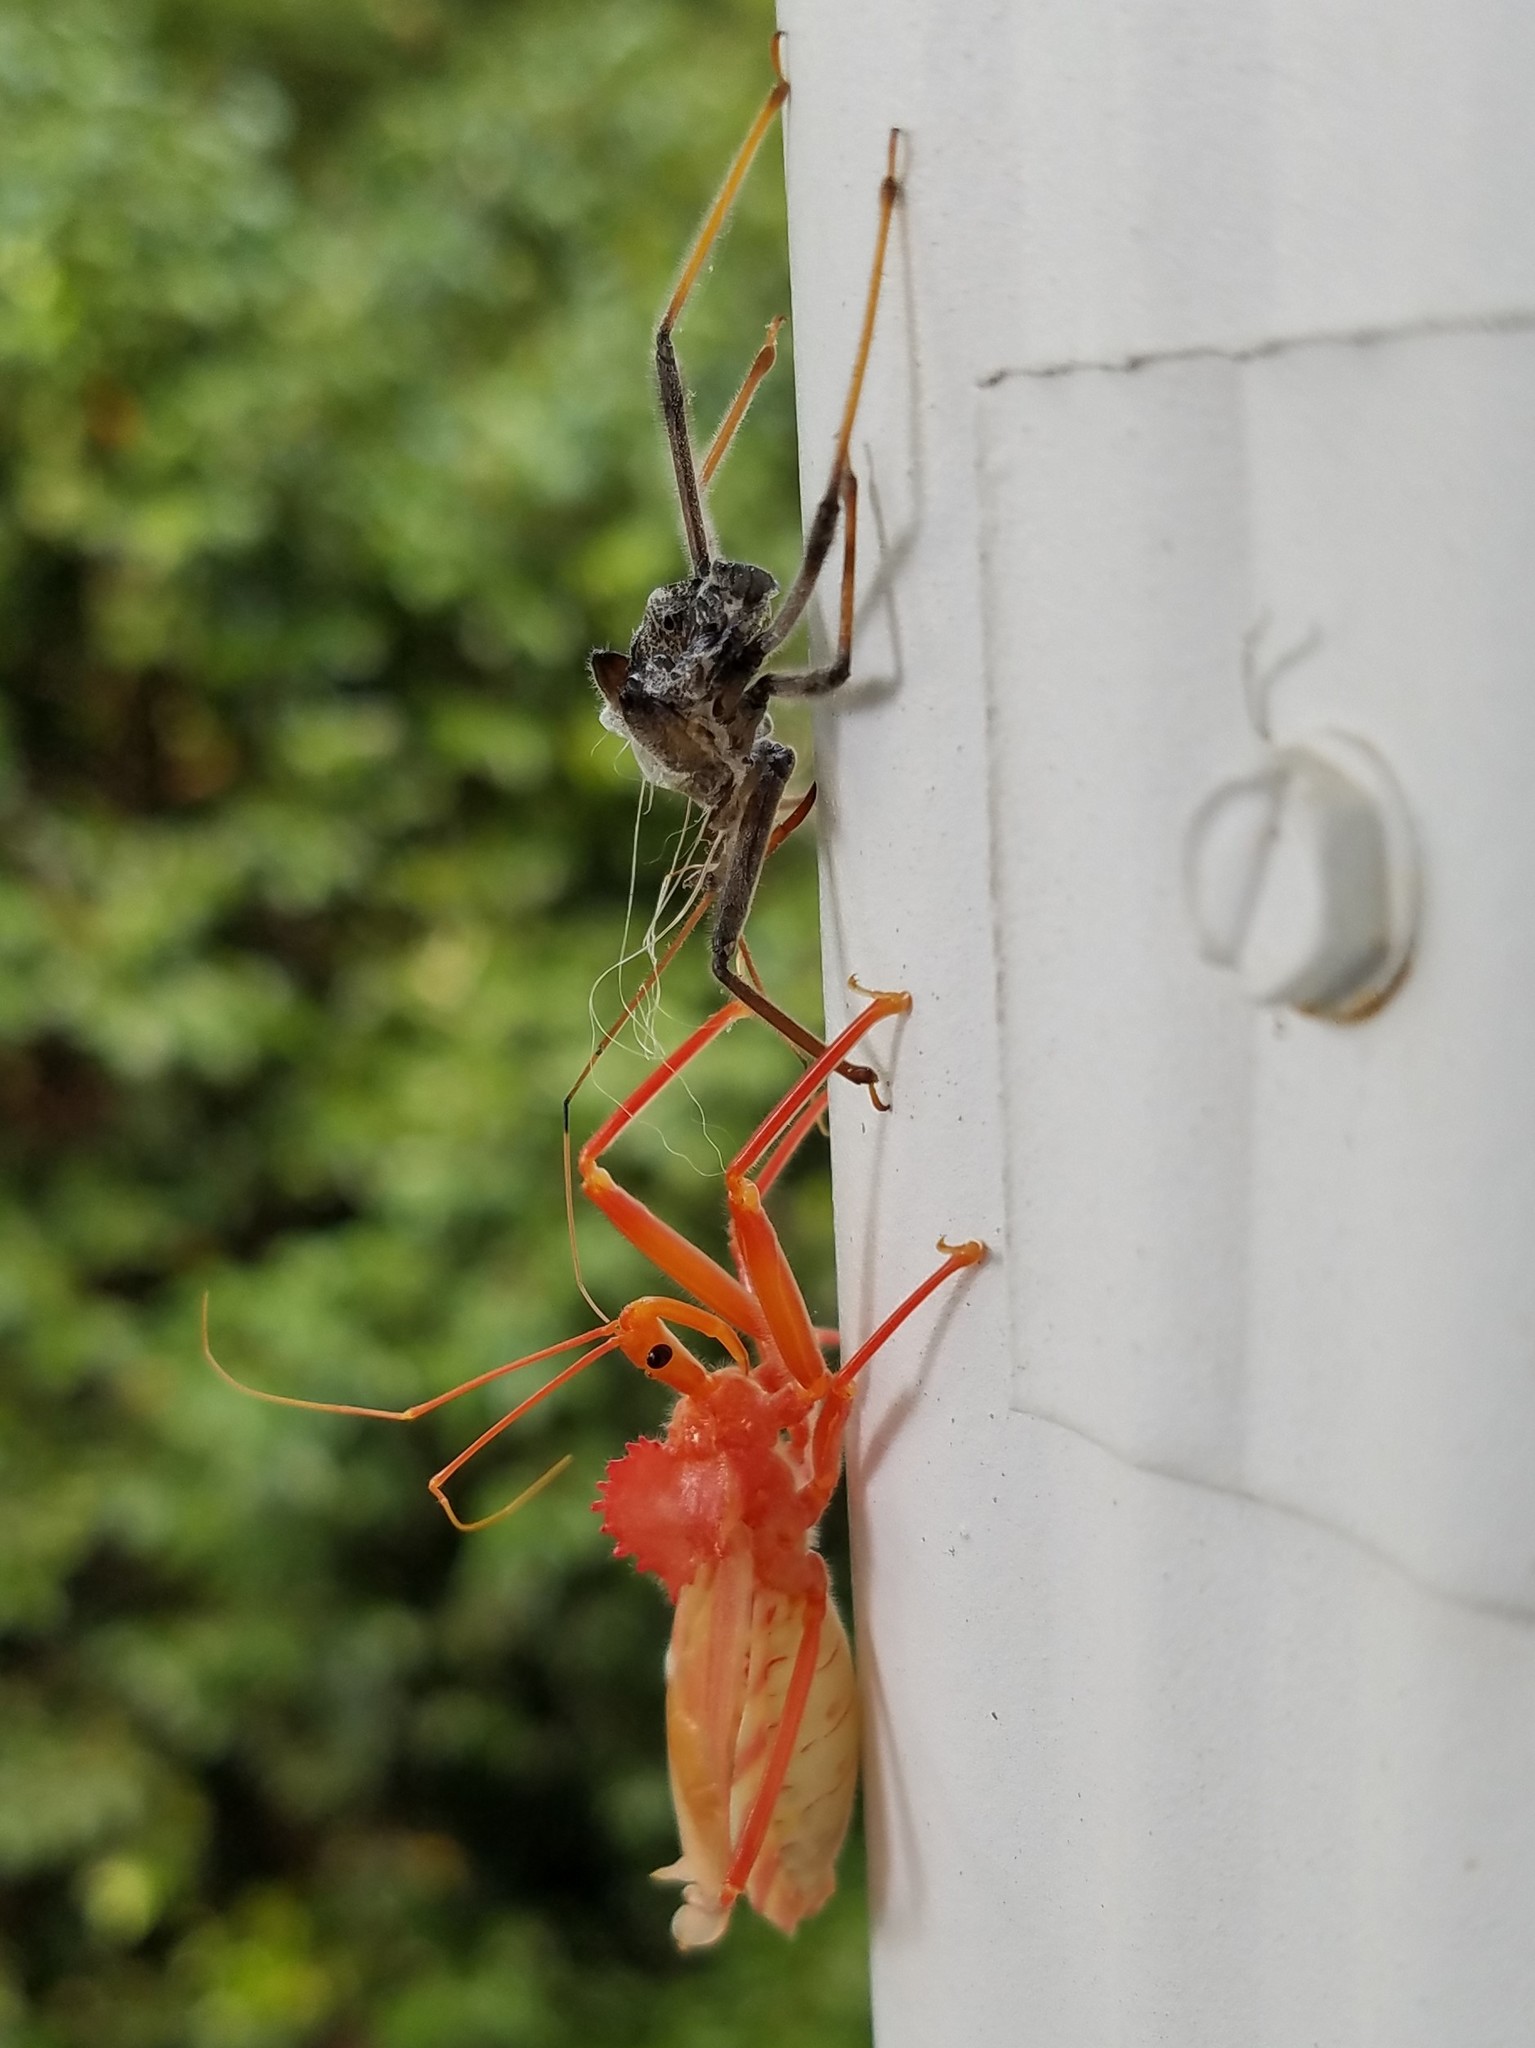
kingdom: Animalia
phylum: Arthropoda
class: Insecta
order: Hemiptera
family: Reduviidae
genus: Arilus
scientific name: Arilus cristatus
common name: North american wheel bug
